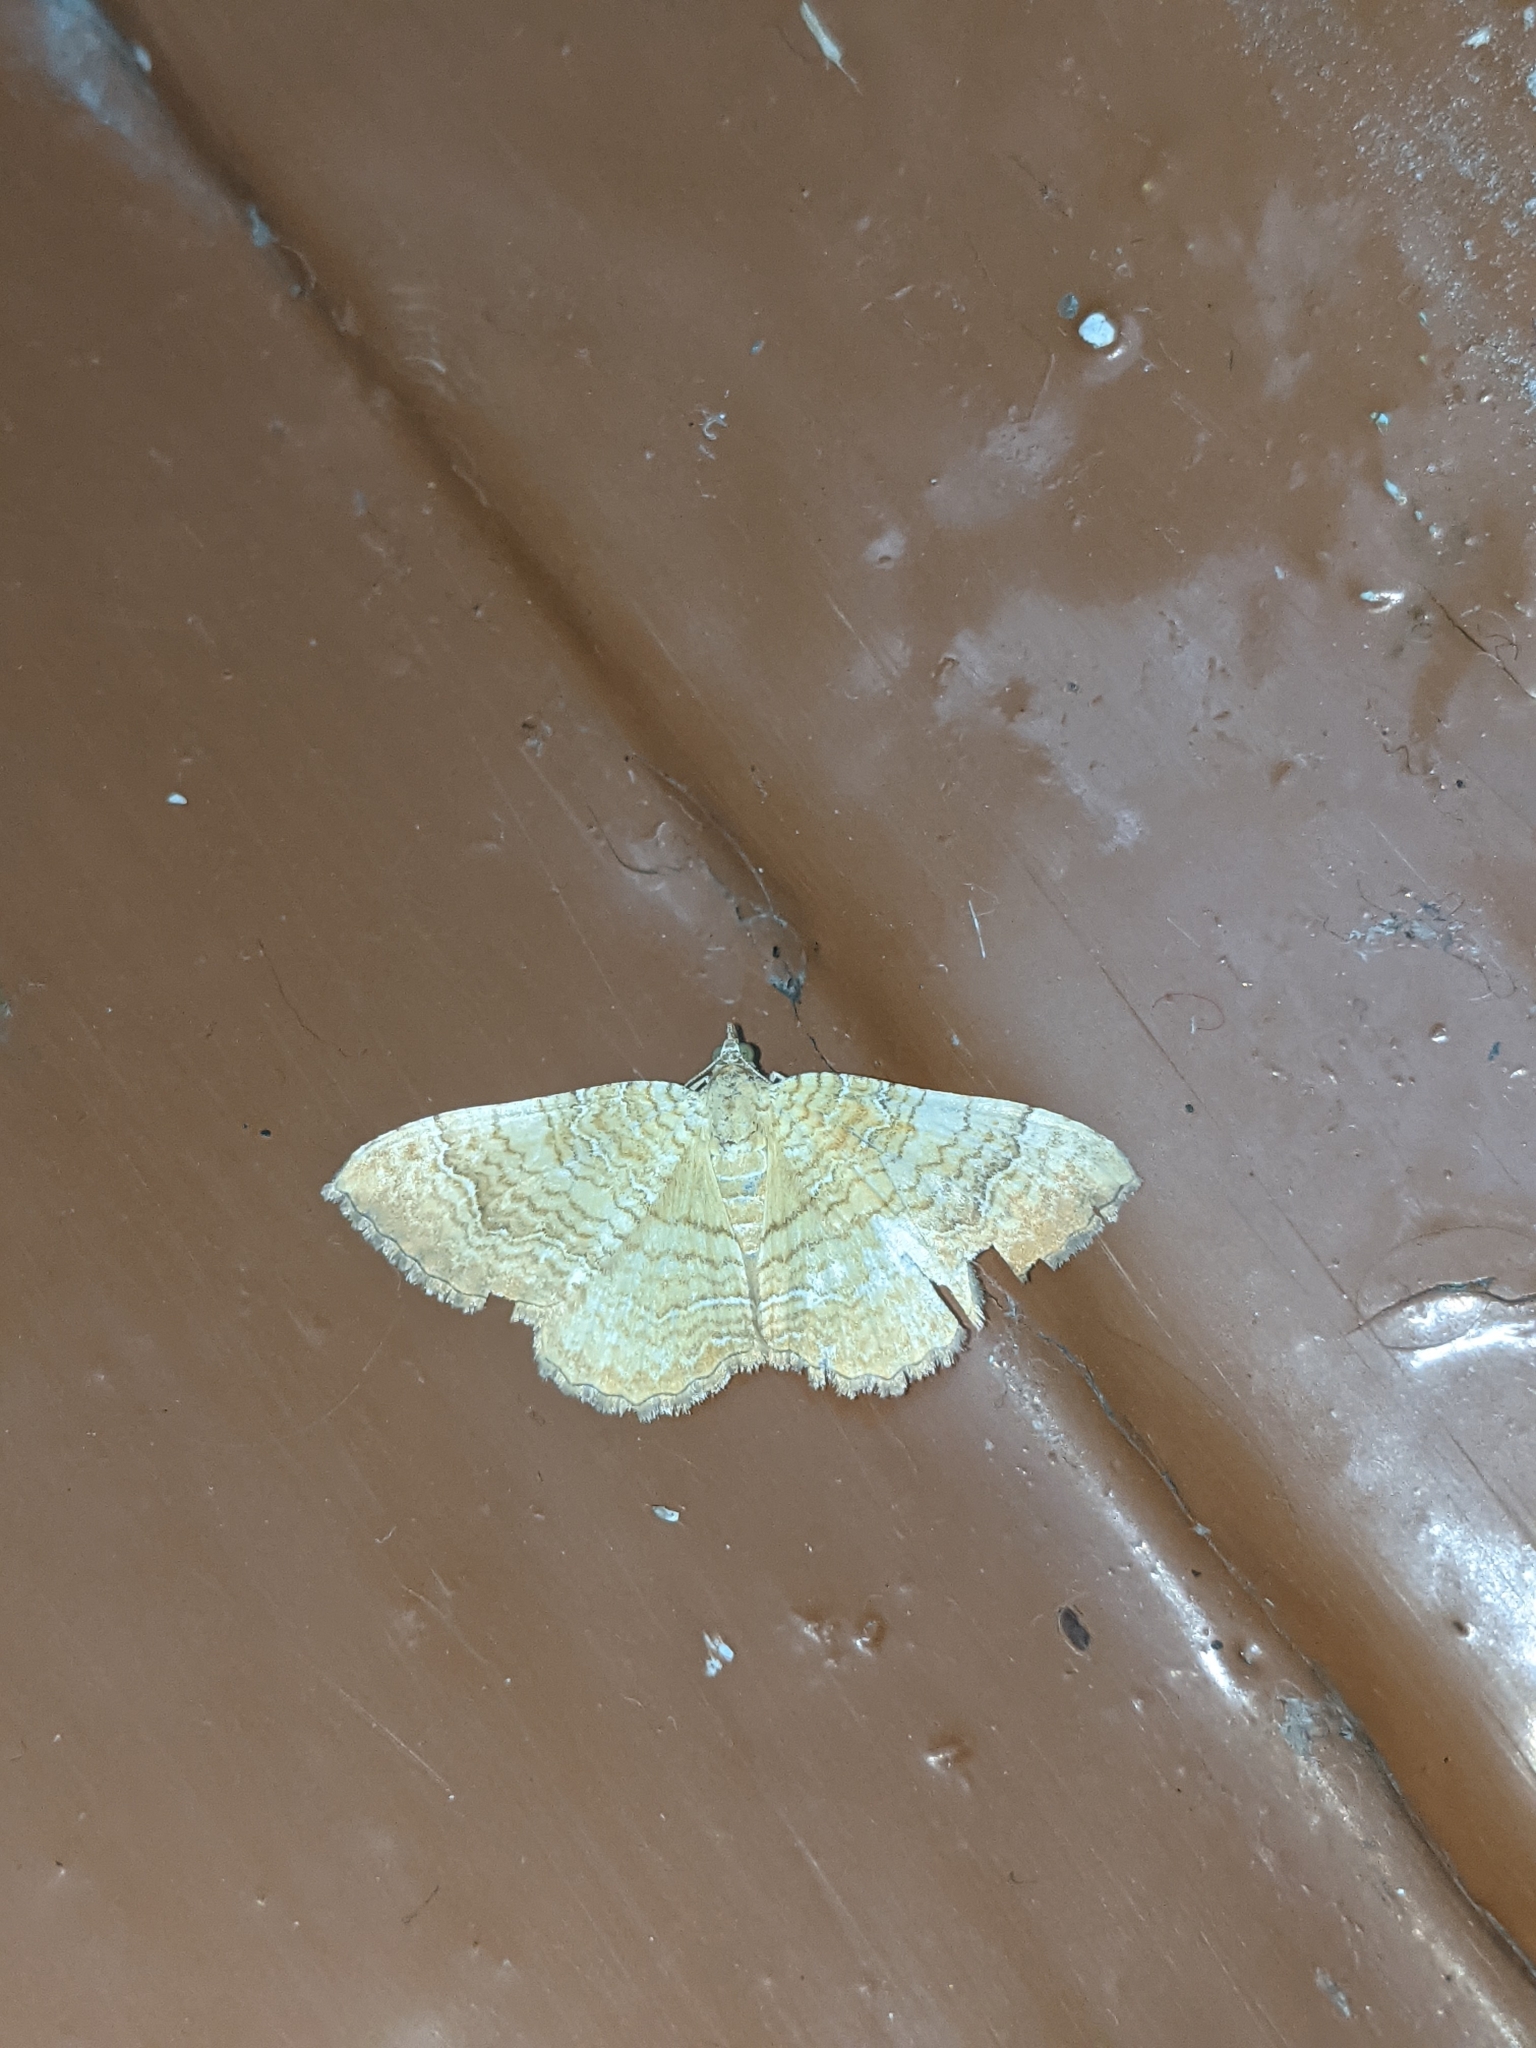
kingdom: Animalia
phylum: Arthropoda
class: Insecta
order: Lepidoptera
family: Geometridae
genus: Camptogramma
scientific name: Camptogramma bilineata
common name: Yellow shell
